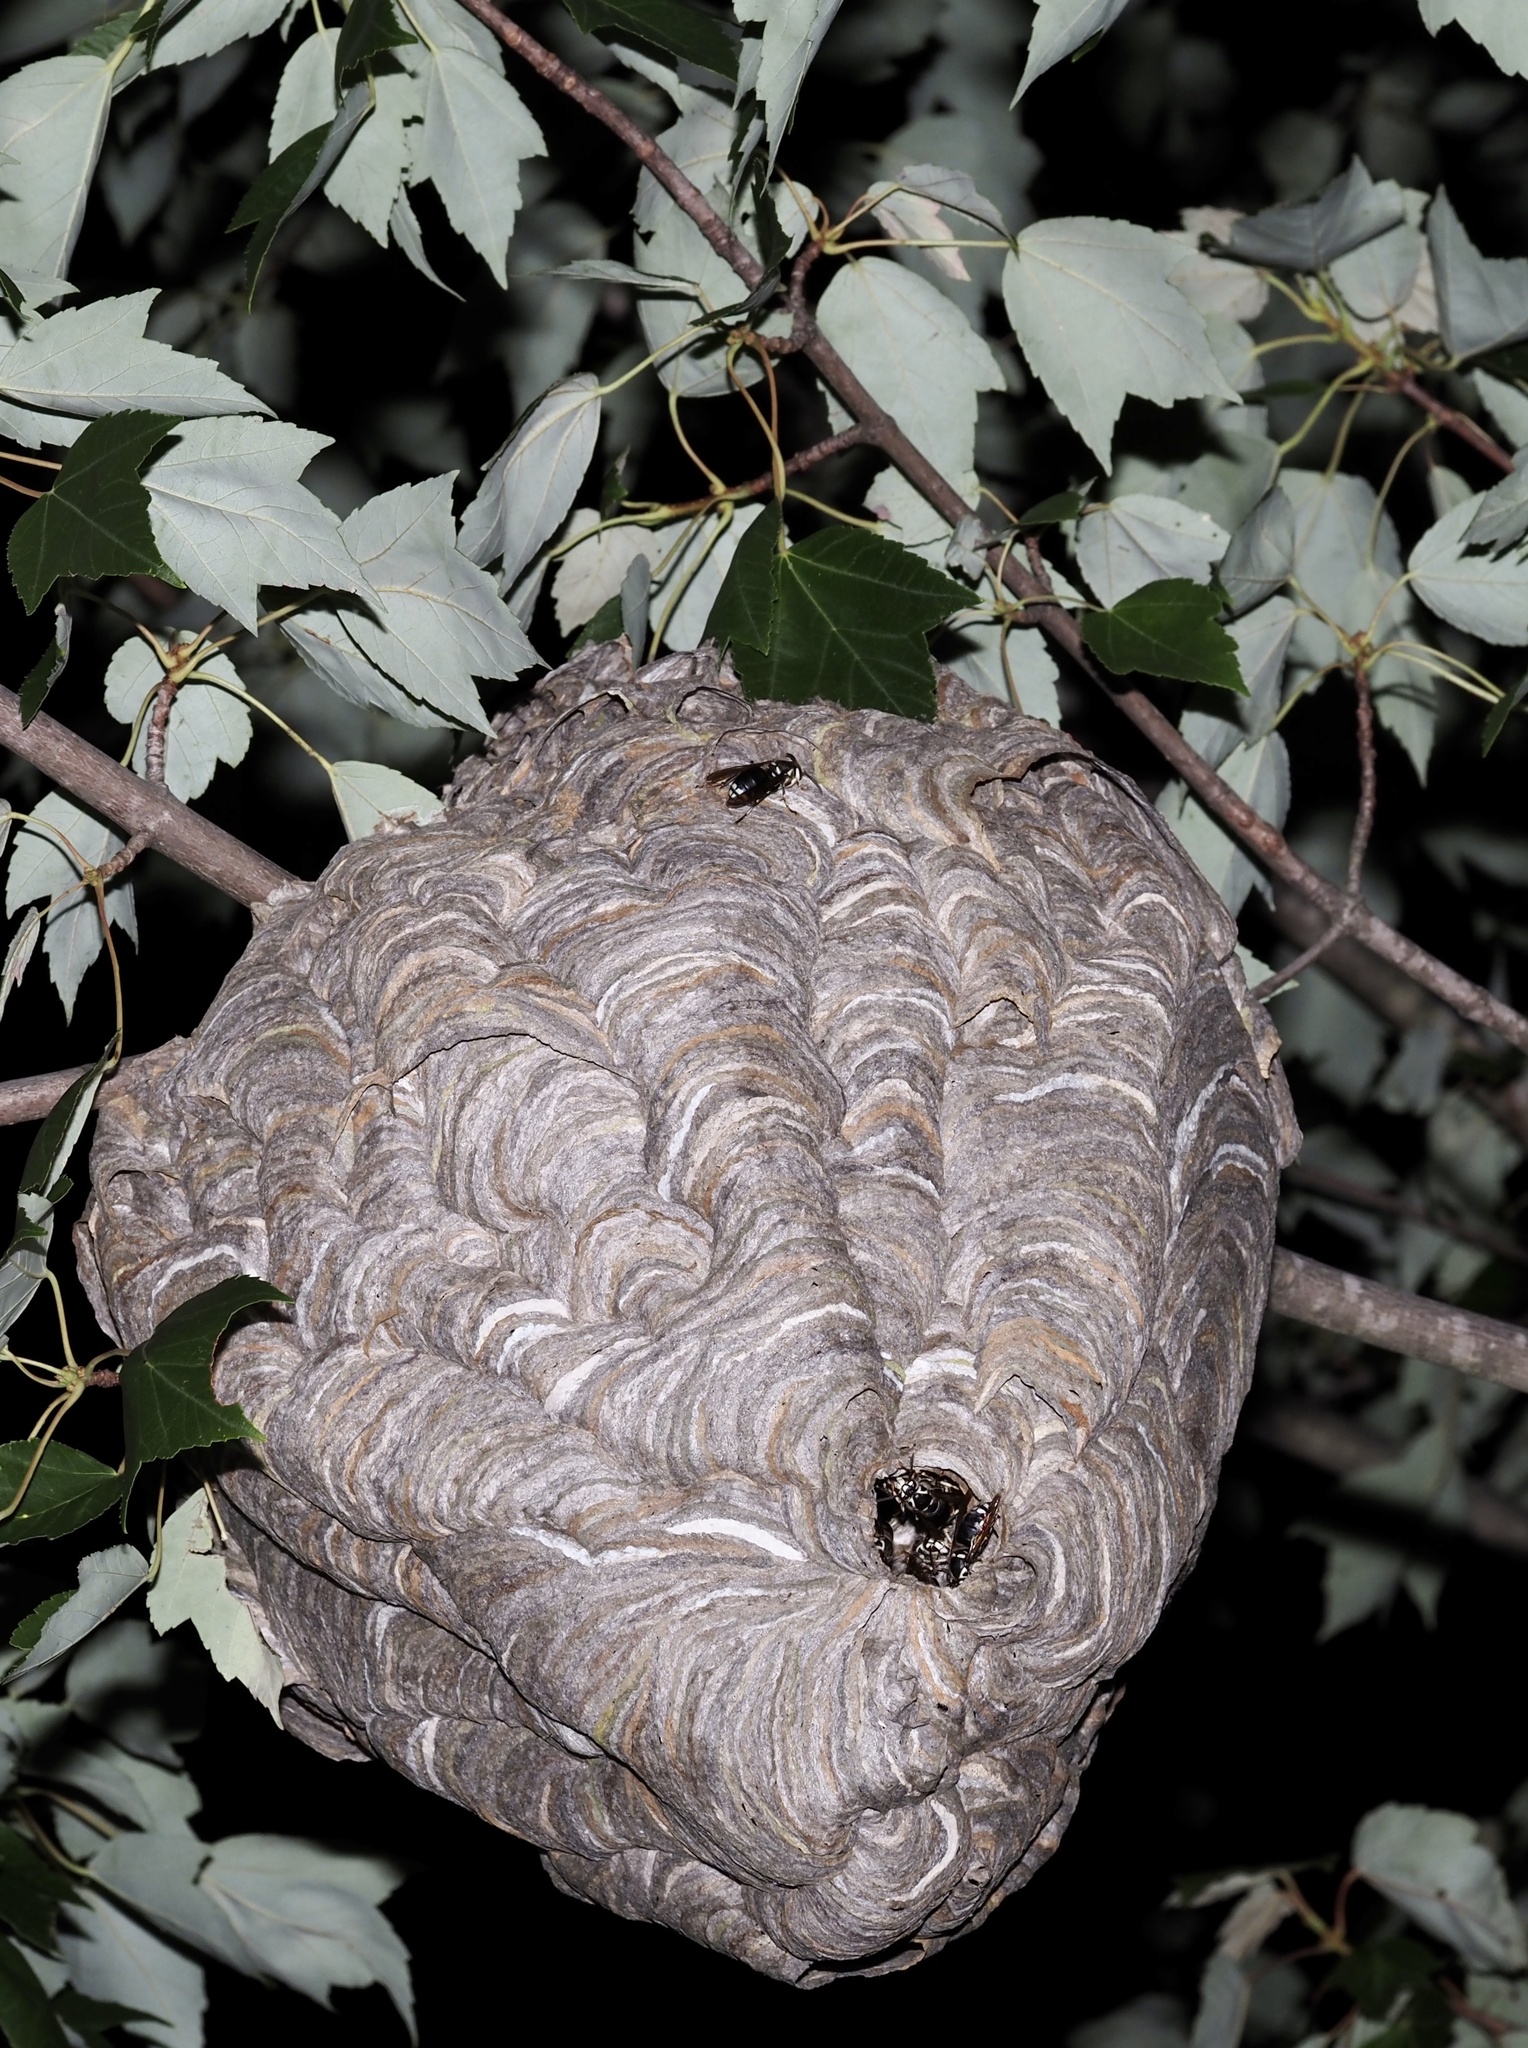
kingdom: Animalia
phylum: Arthropoda
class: Insecta
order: Hymenoptera
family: Vespidae
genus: Dolichovespula
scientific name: Dolichovespula maculata
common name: Bald-faced hornet
